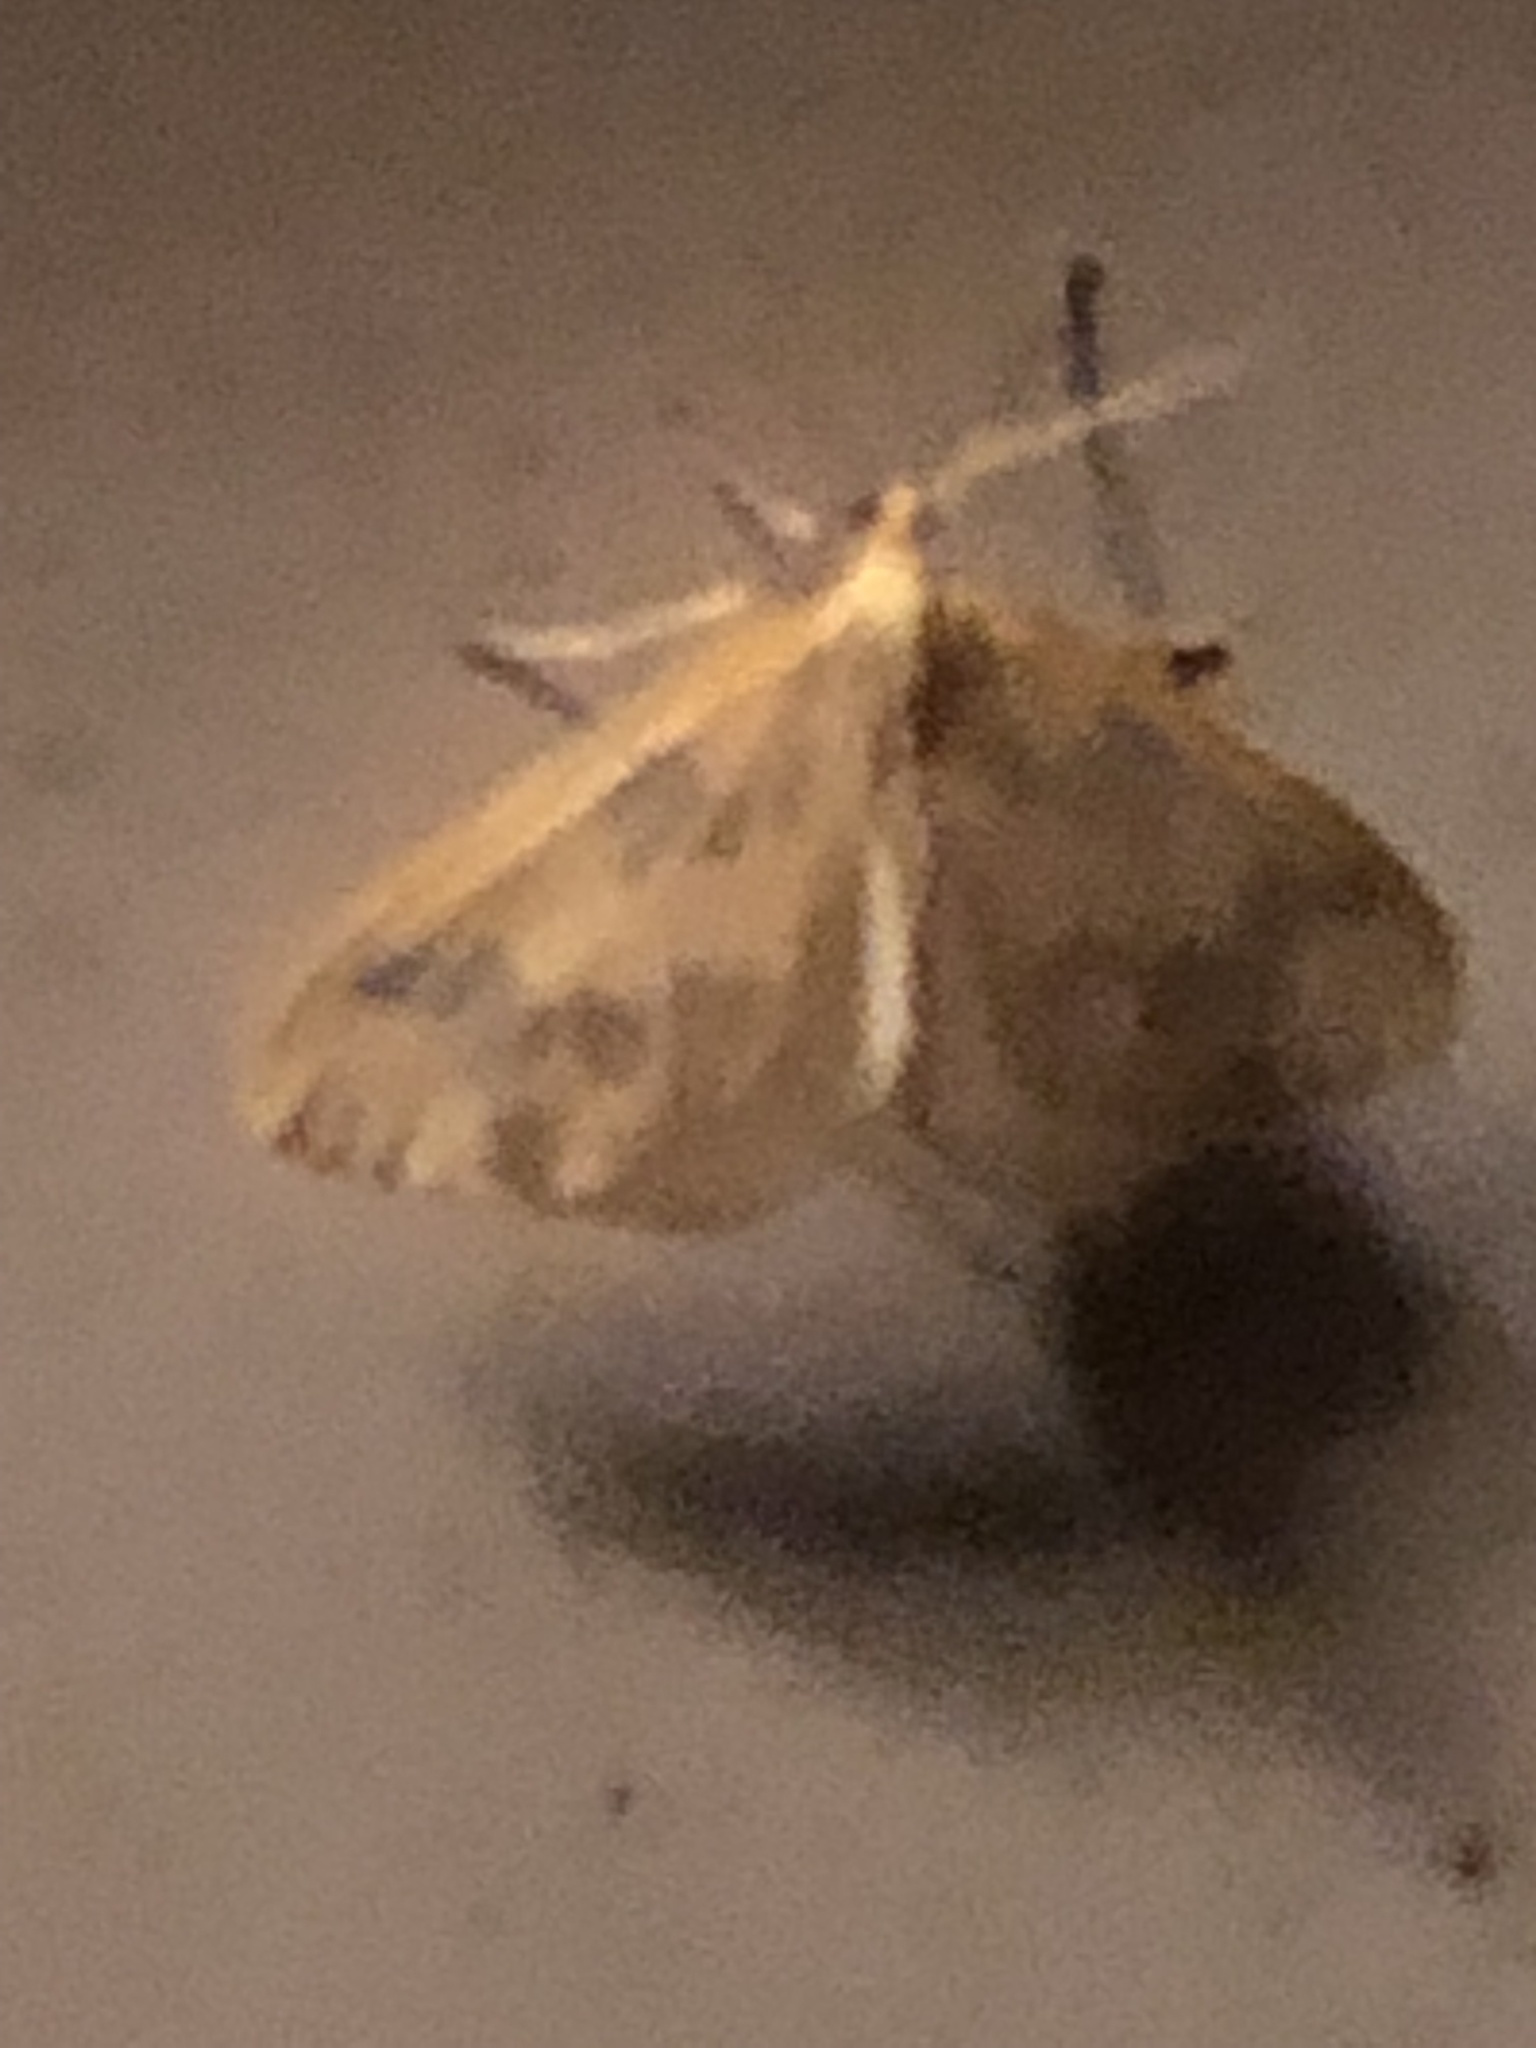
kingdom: Animalia
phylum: Arthropoda
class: Insecta
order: Lepidoptera
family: Geometridae
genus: Eubaphe
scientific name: Eubaphe mendica
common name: Beggar
